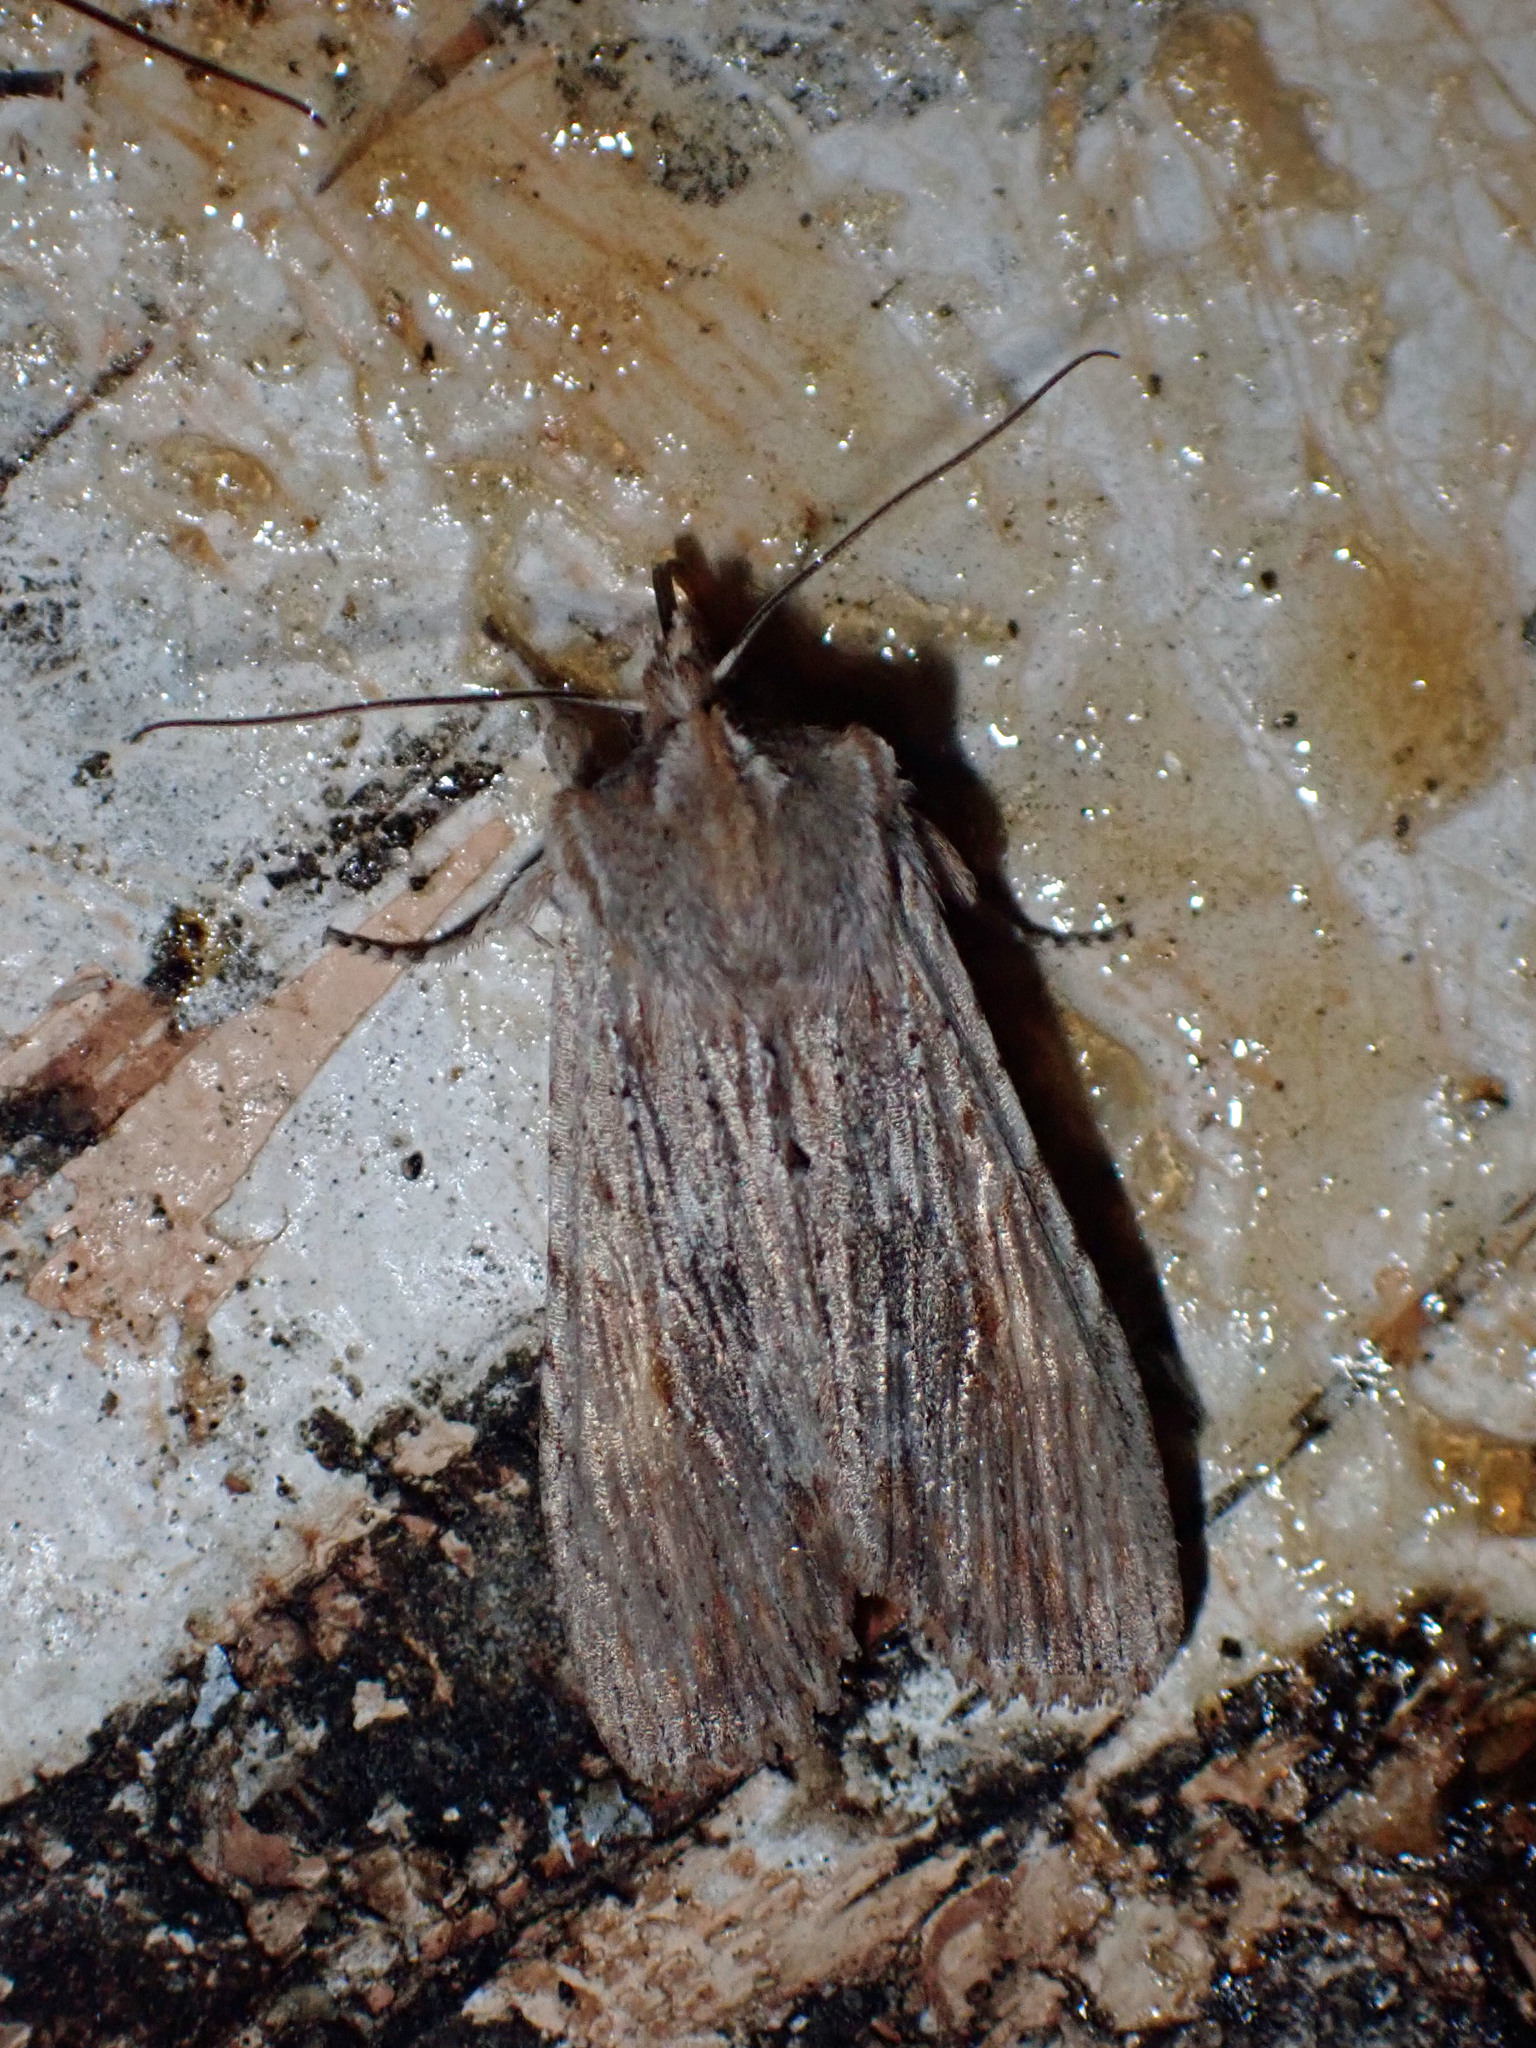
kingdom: Animalia
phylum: Arthropoda
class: Insecta
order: Lepidoptera
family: Noctuidae
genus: Lithophane
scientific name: Lithophane amanda
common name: Amanda's pinion moth
